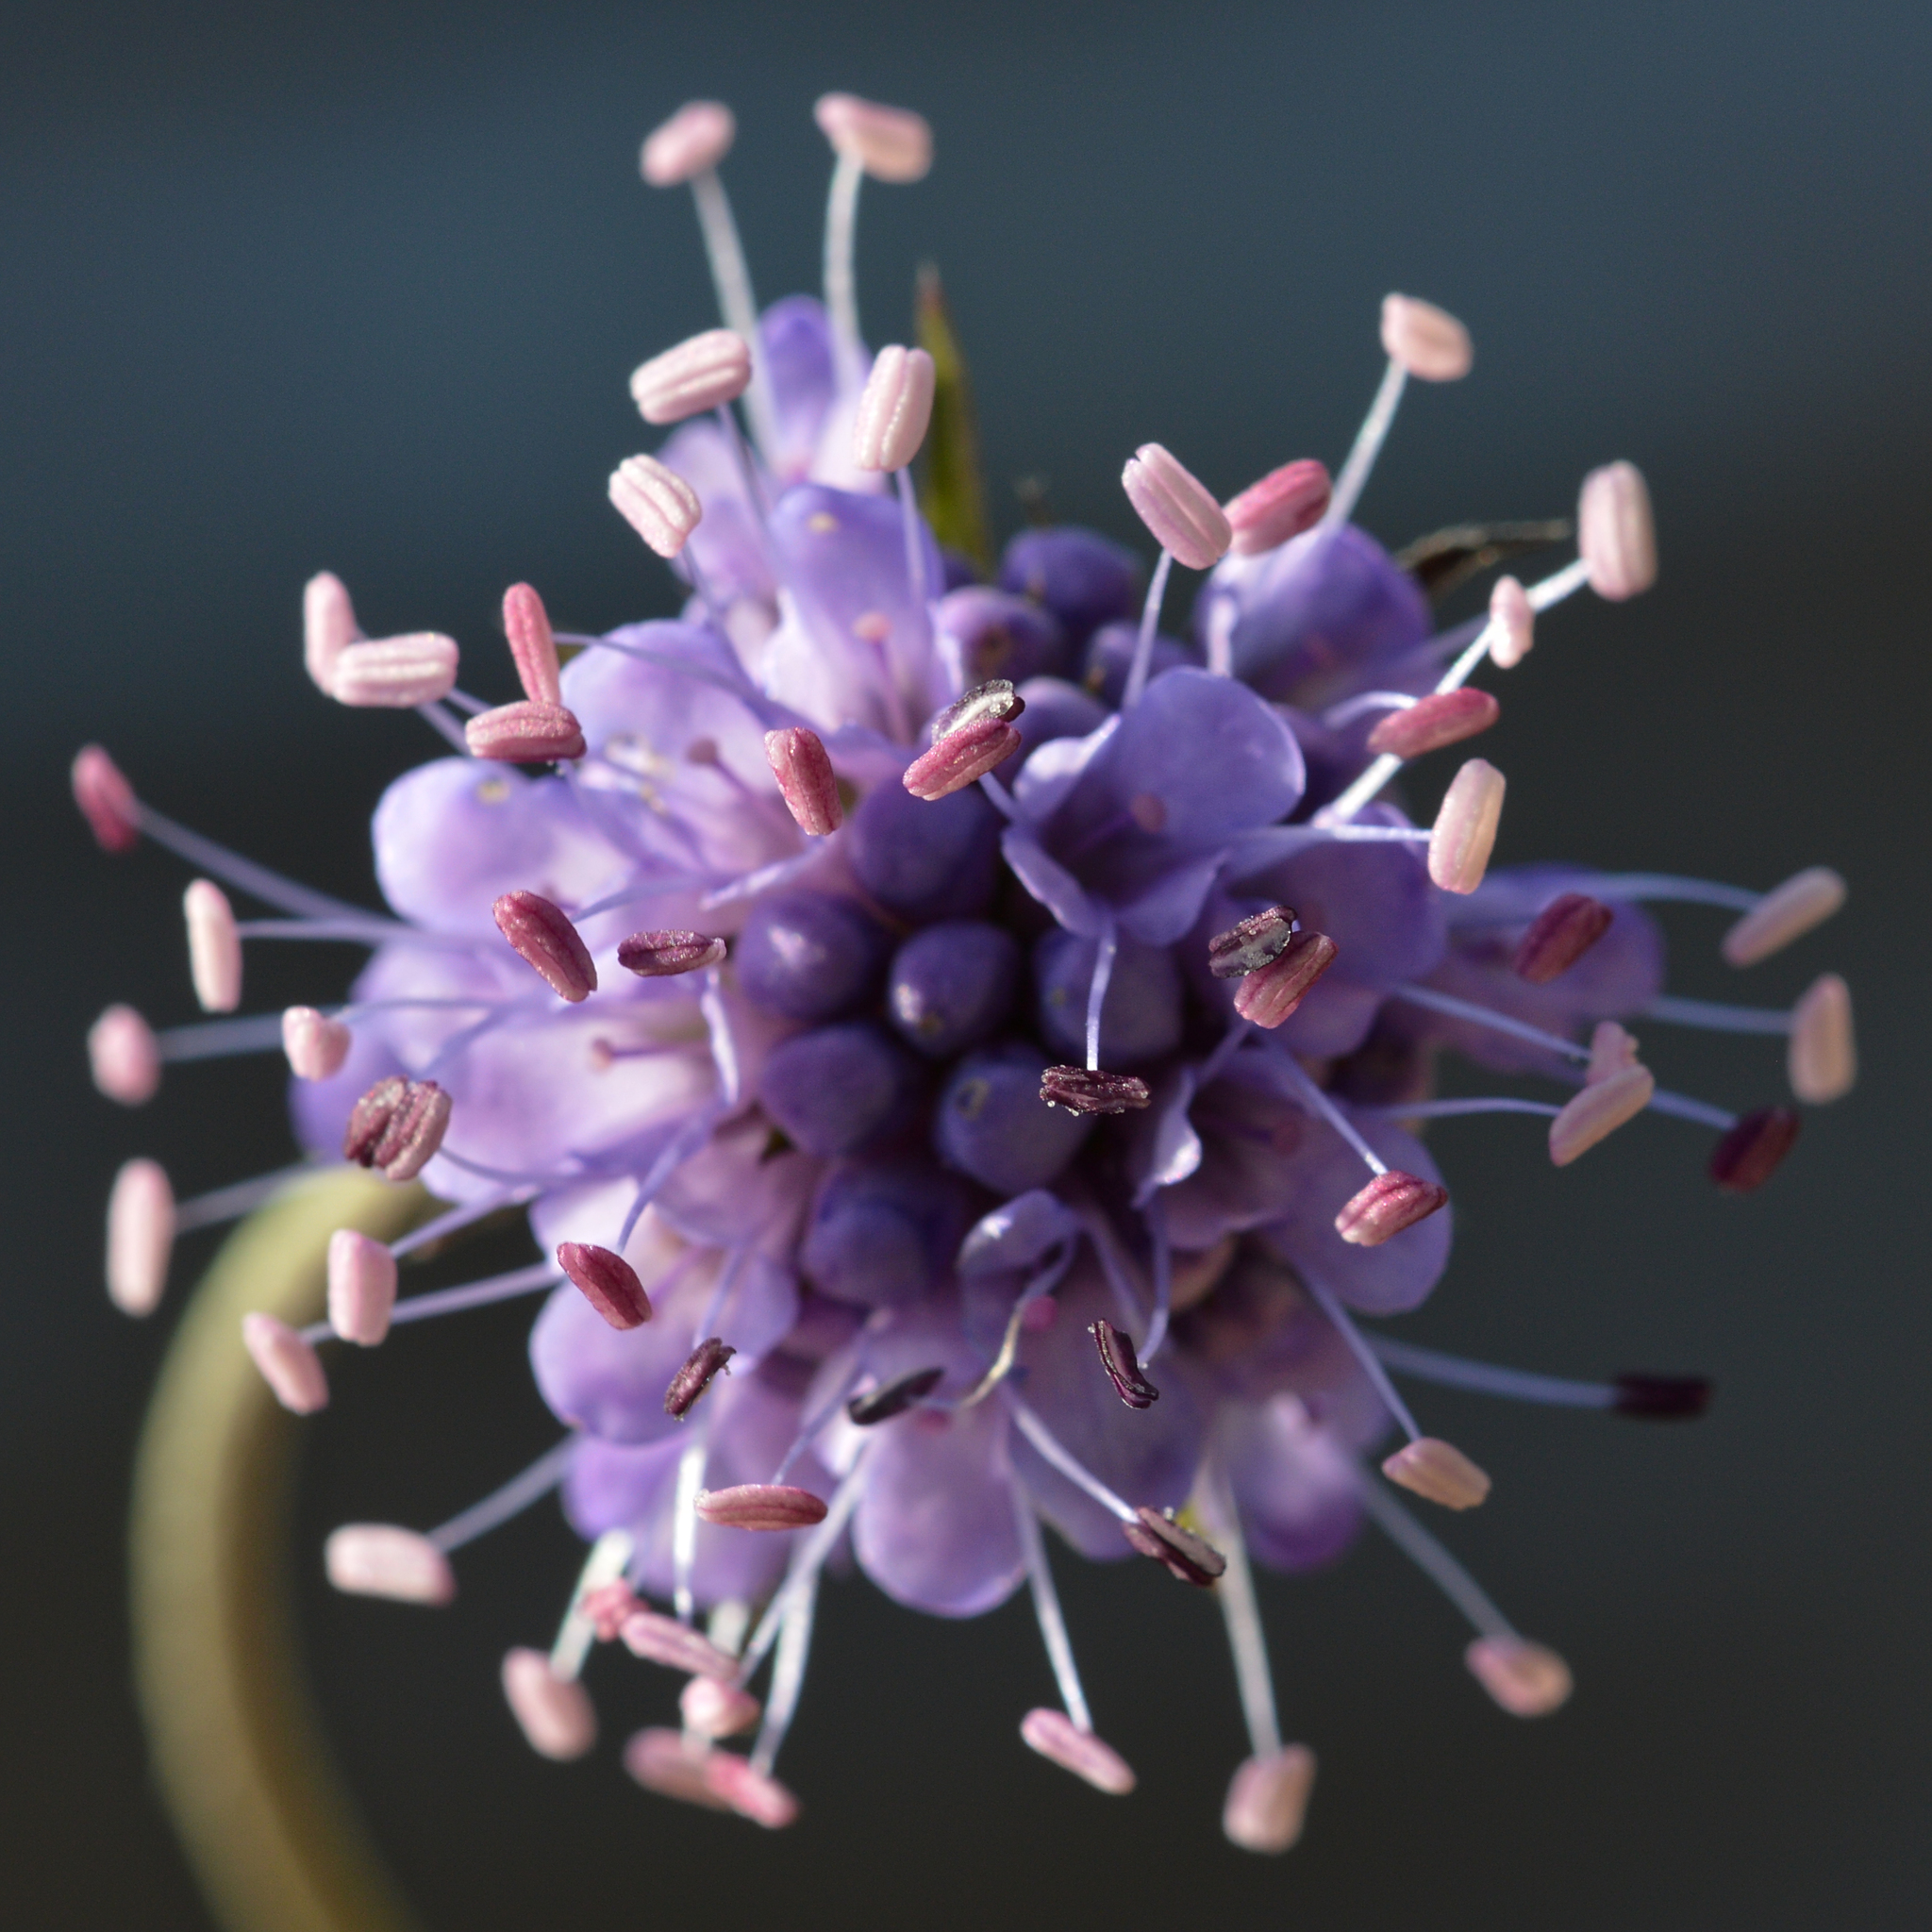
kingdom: Plantae
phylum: Tracheophyta
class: Magnoliopsida
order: Dipsacales
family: Caprifoliaceae
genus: Succisa
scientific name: Succisa pratensis
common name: Devil's-bit
